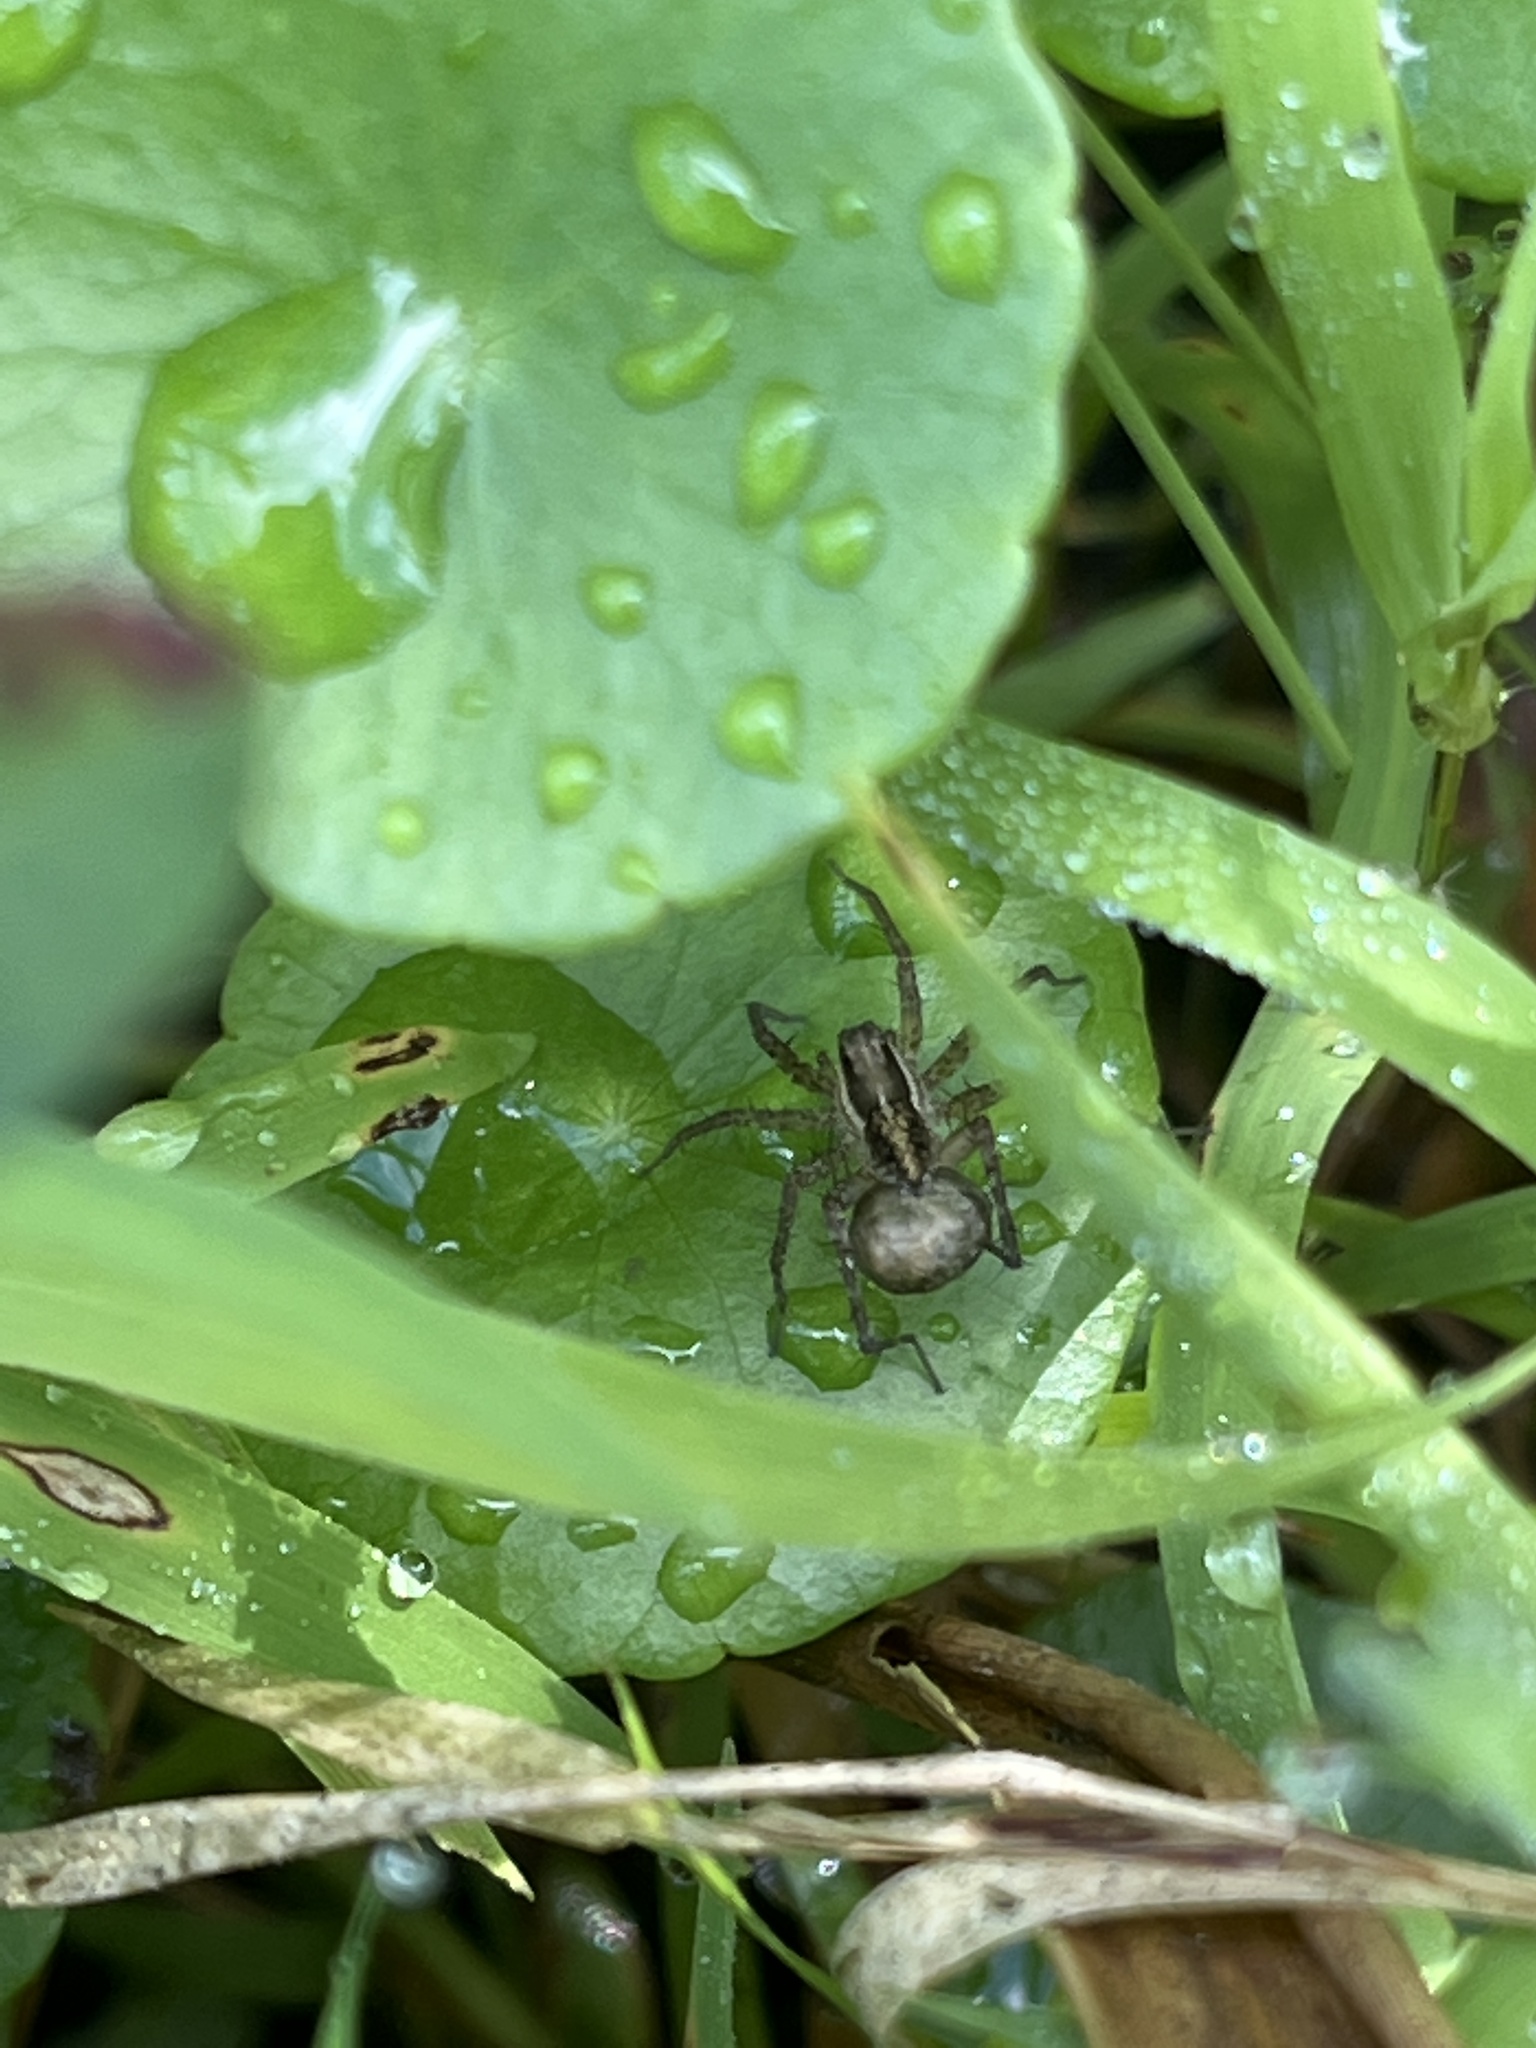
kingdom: Animalia
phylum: Arthropoda
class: Arachnida
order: Araneae
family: Lycosidae
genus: Pardosa
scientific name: Pardosa
